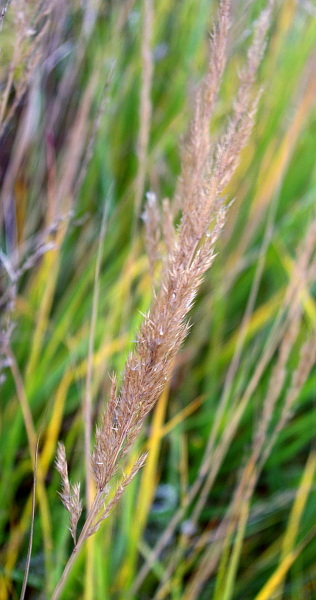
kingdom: Plantae
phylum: Tracheophyta
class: Liliopsida
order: Poales
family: Poaceae
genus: Calamagrostis
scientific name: Calamagrostis epigejos
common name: Wood small-reed
